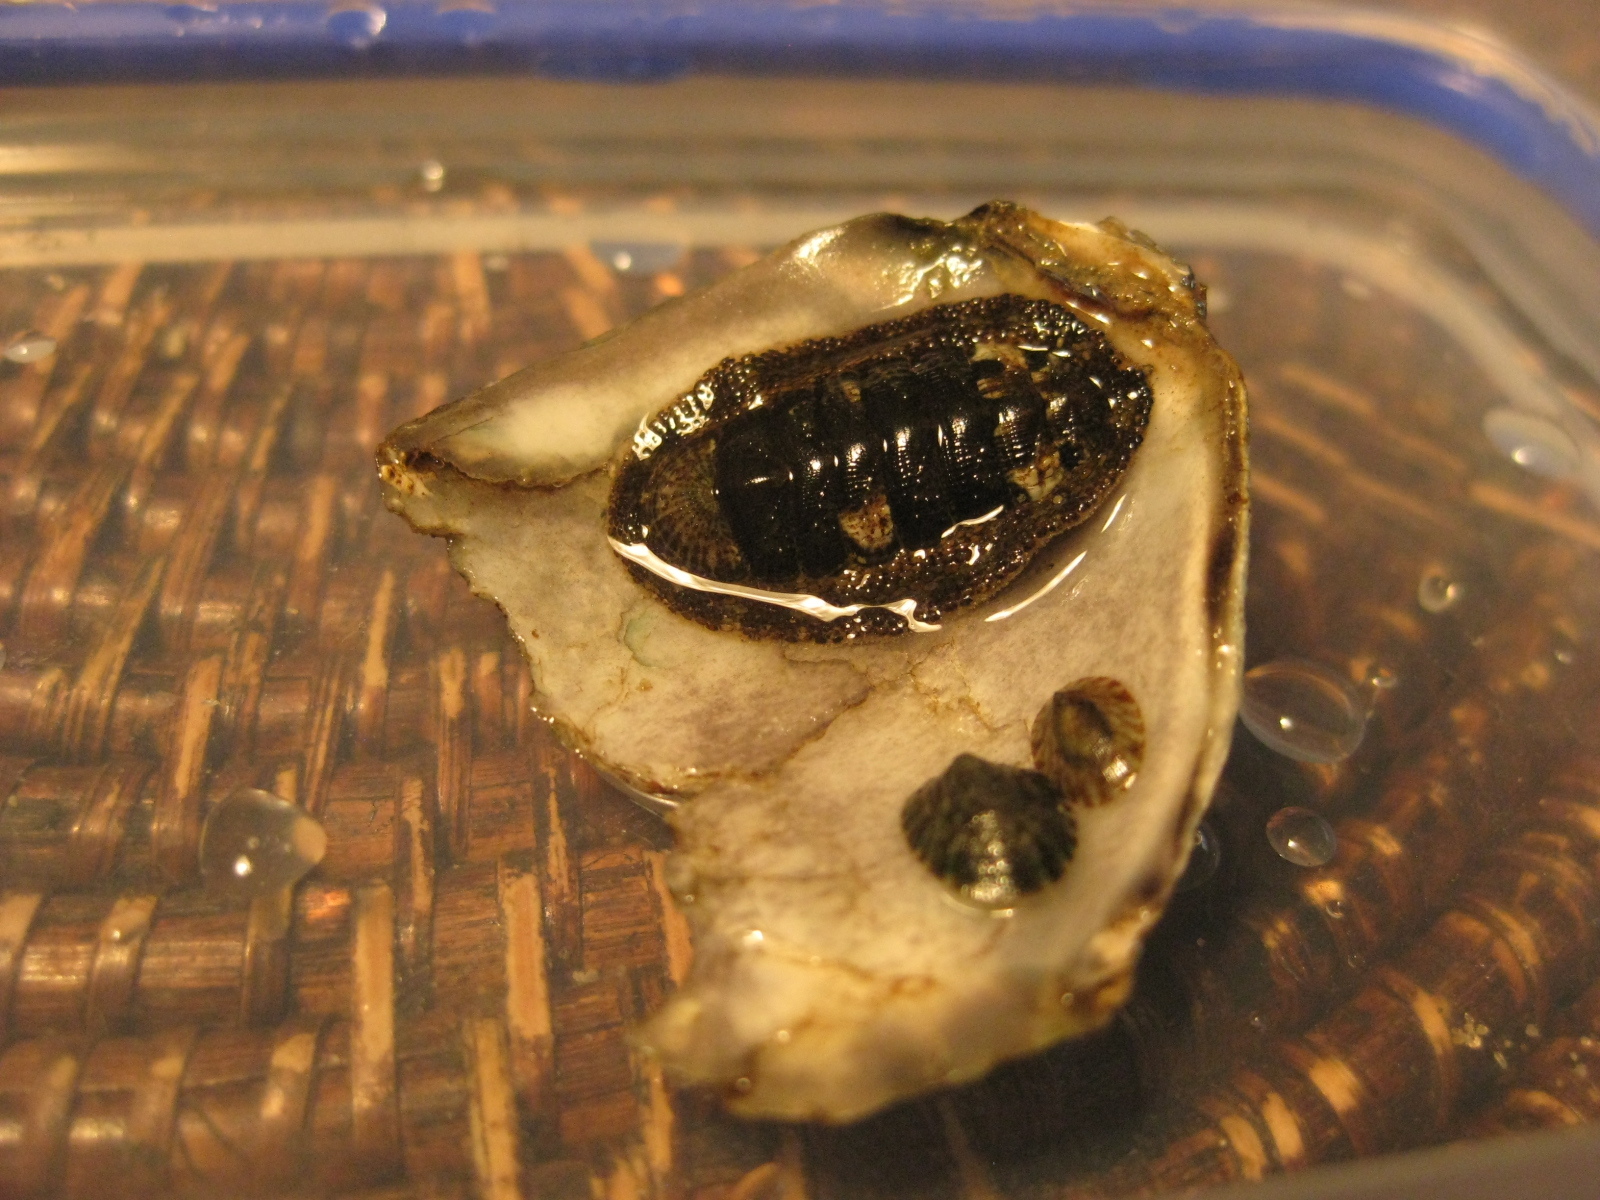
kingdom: Animalia
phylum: Mollusca
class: Polyplacophora
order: Chitonida
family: Chitonidae
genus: Sypharochiton
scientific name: Sypharochiton pelliserpentis
